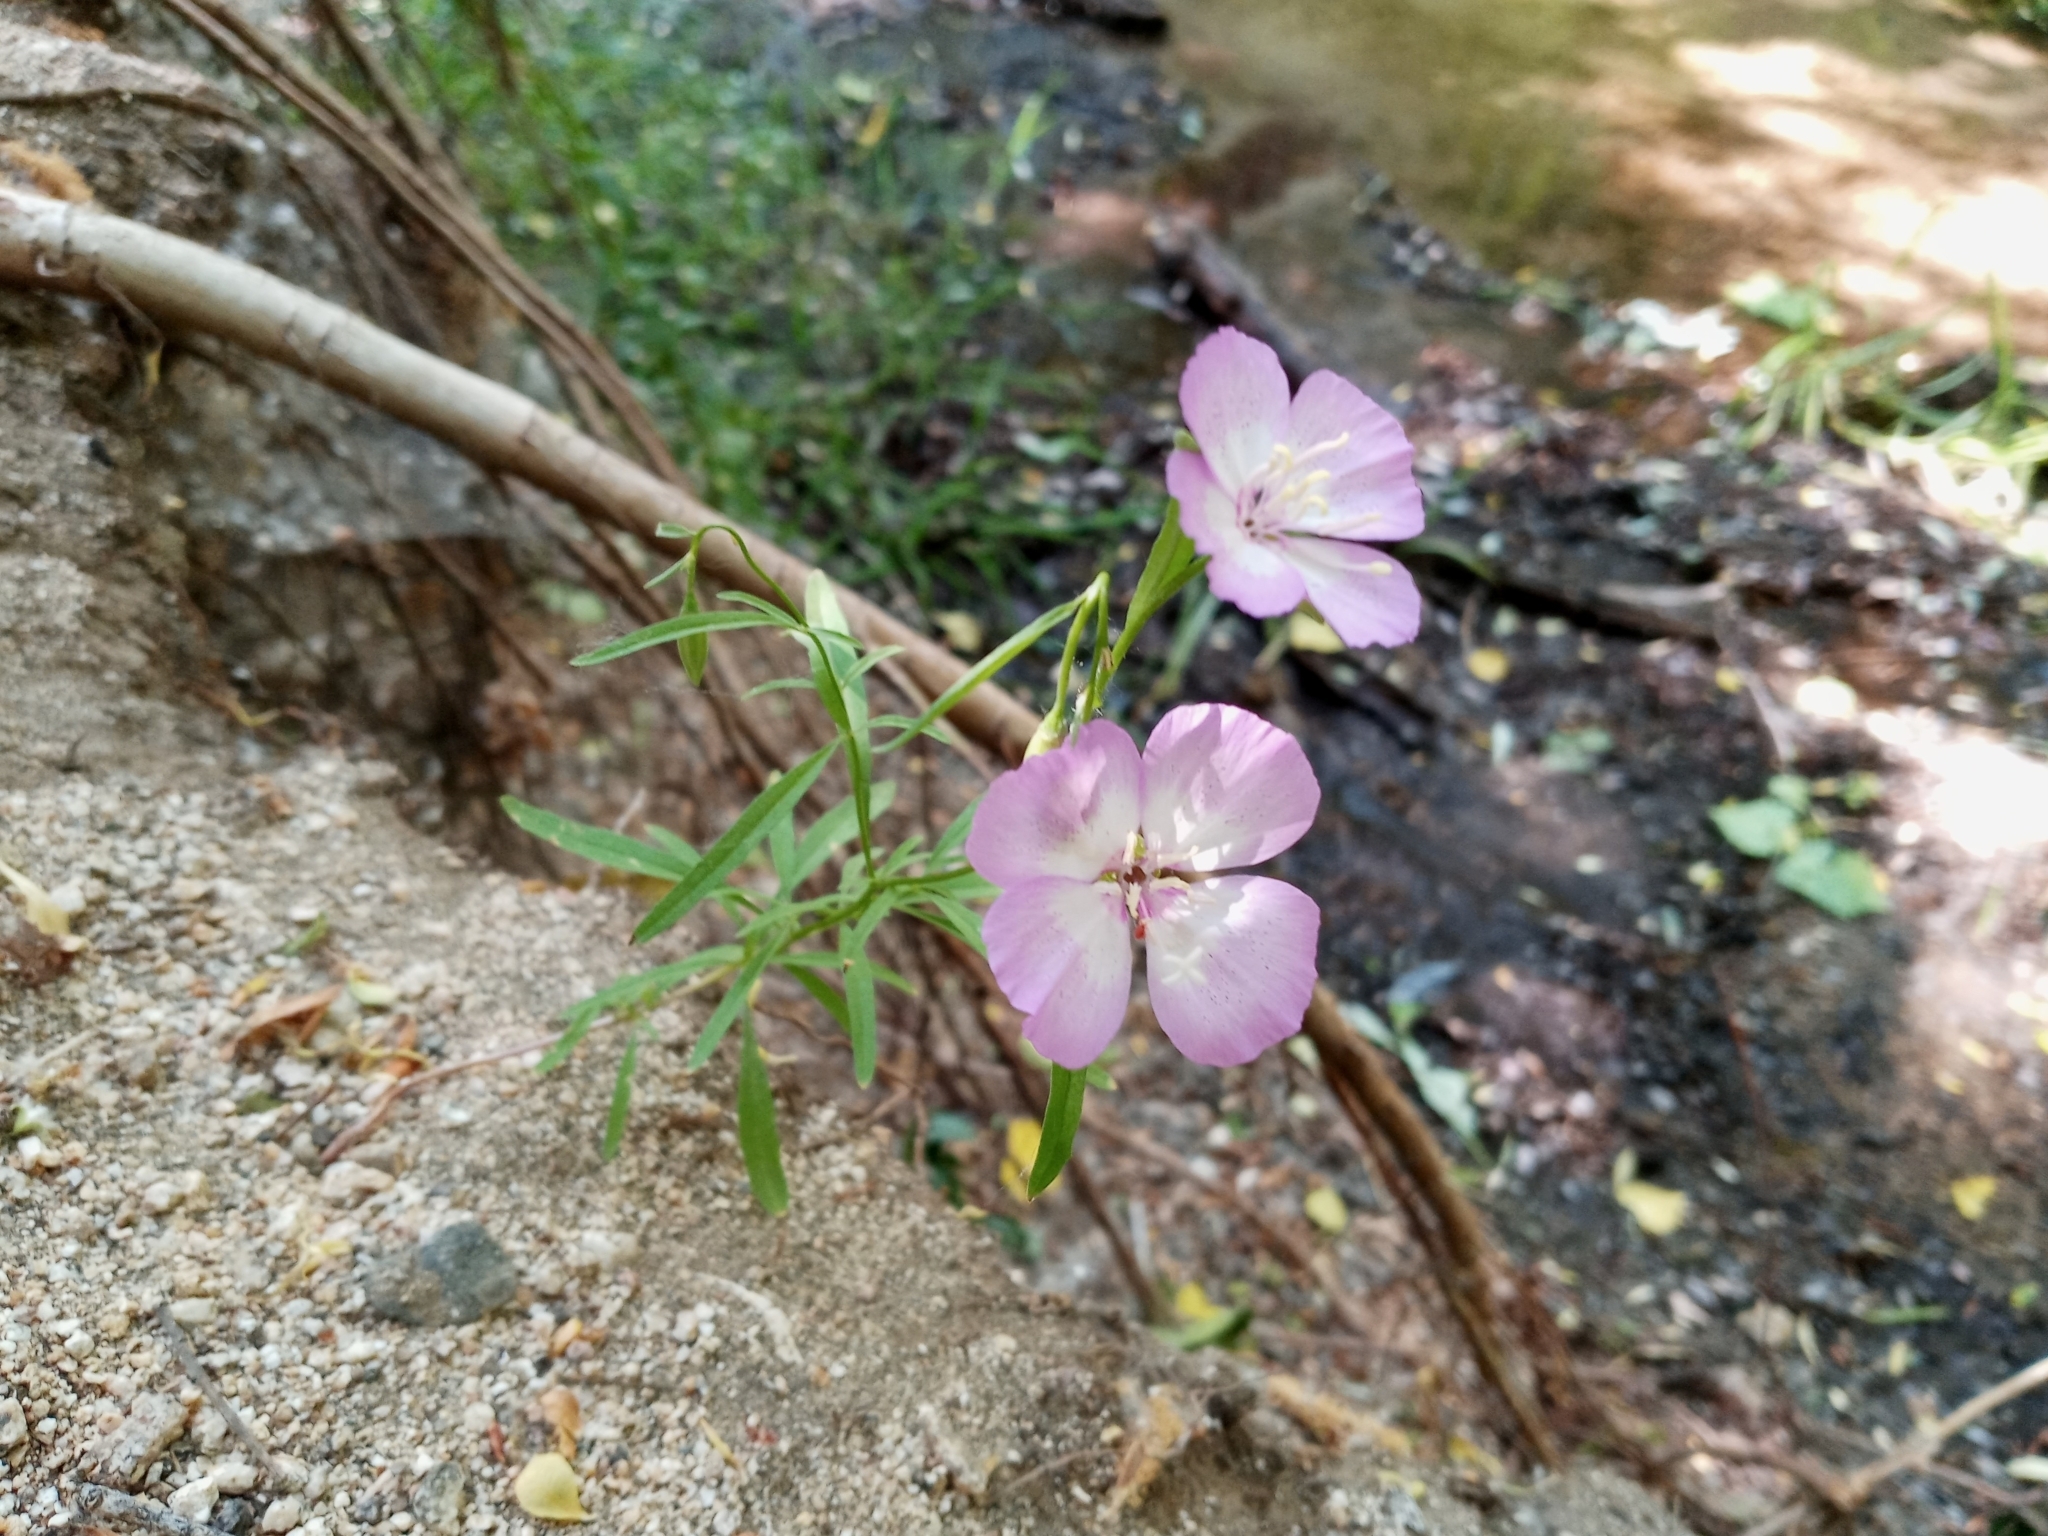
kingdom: Plantae
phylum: Tracheophyta
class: Magnoliopsida
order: Myrtales
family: Onagraceae
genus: Clarkia
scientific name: Clarkia cylindrica
